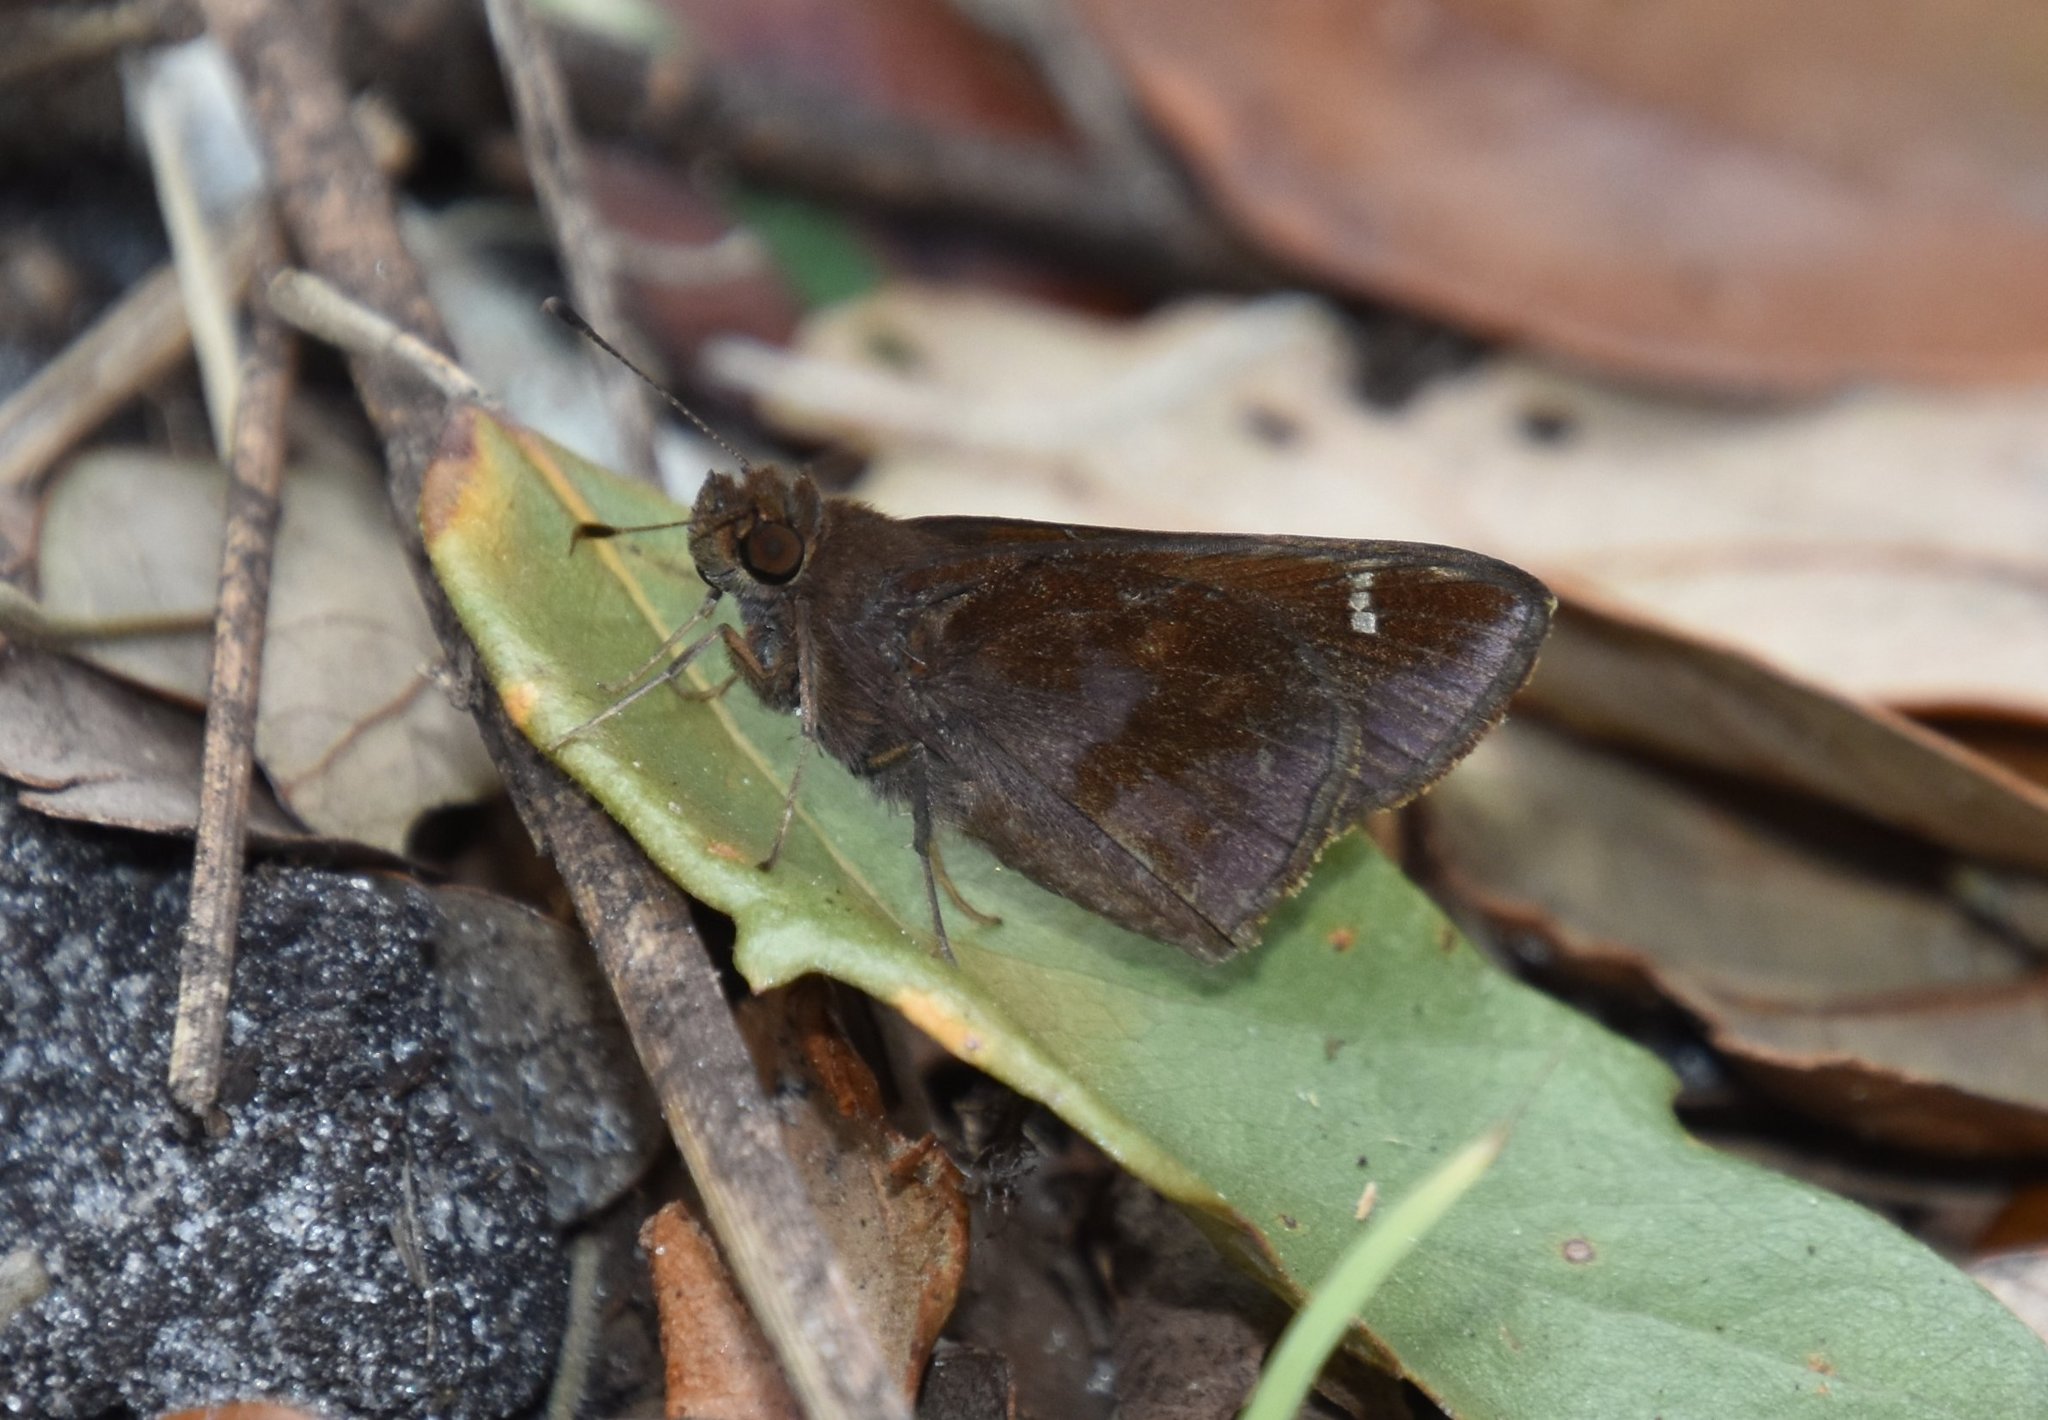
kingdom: Animalia
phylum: Arthropoda
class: Insecta
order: Lepidoptera
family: Hesperiidae
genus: Lerema
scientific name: Lerema accius
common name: Clouded skipper
